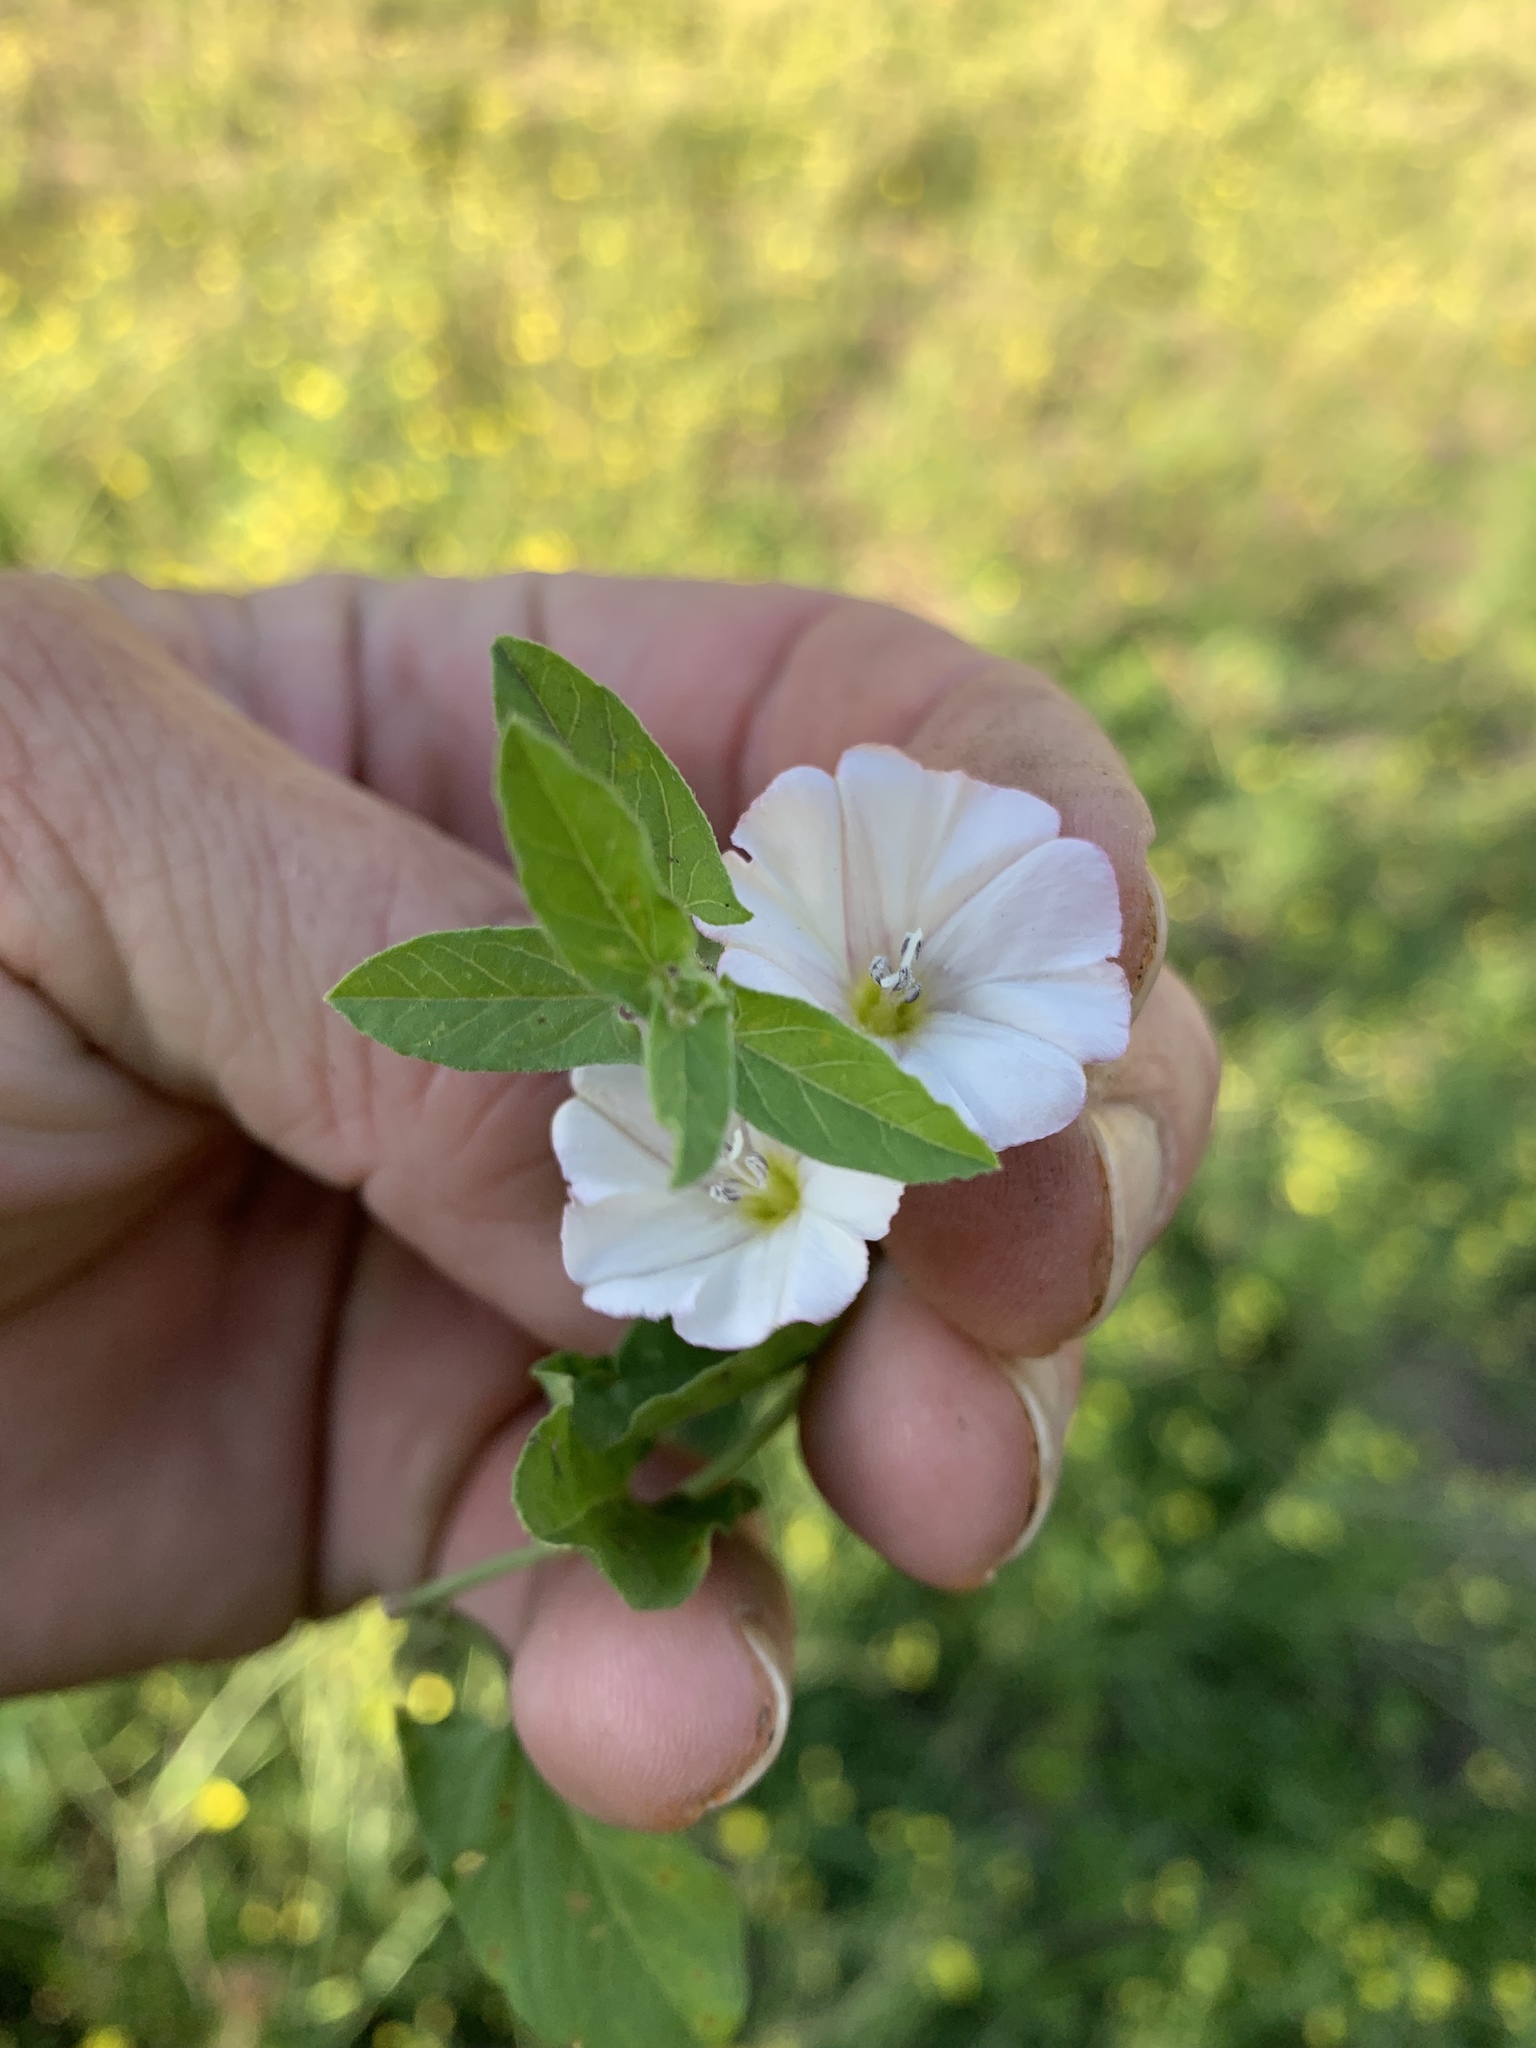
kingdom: Plantae
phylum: Tracheophyta
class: Magnoliopsida
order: Solanales
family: Convolvulaceae
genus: Convolvulus
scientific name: Convolvulus arvensis
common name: Field bindweed
